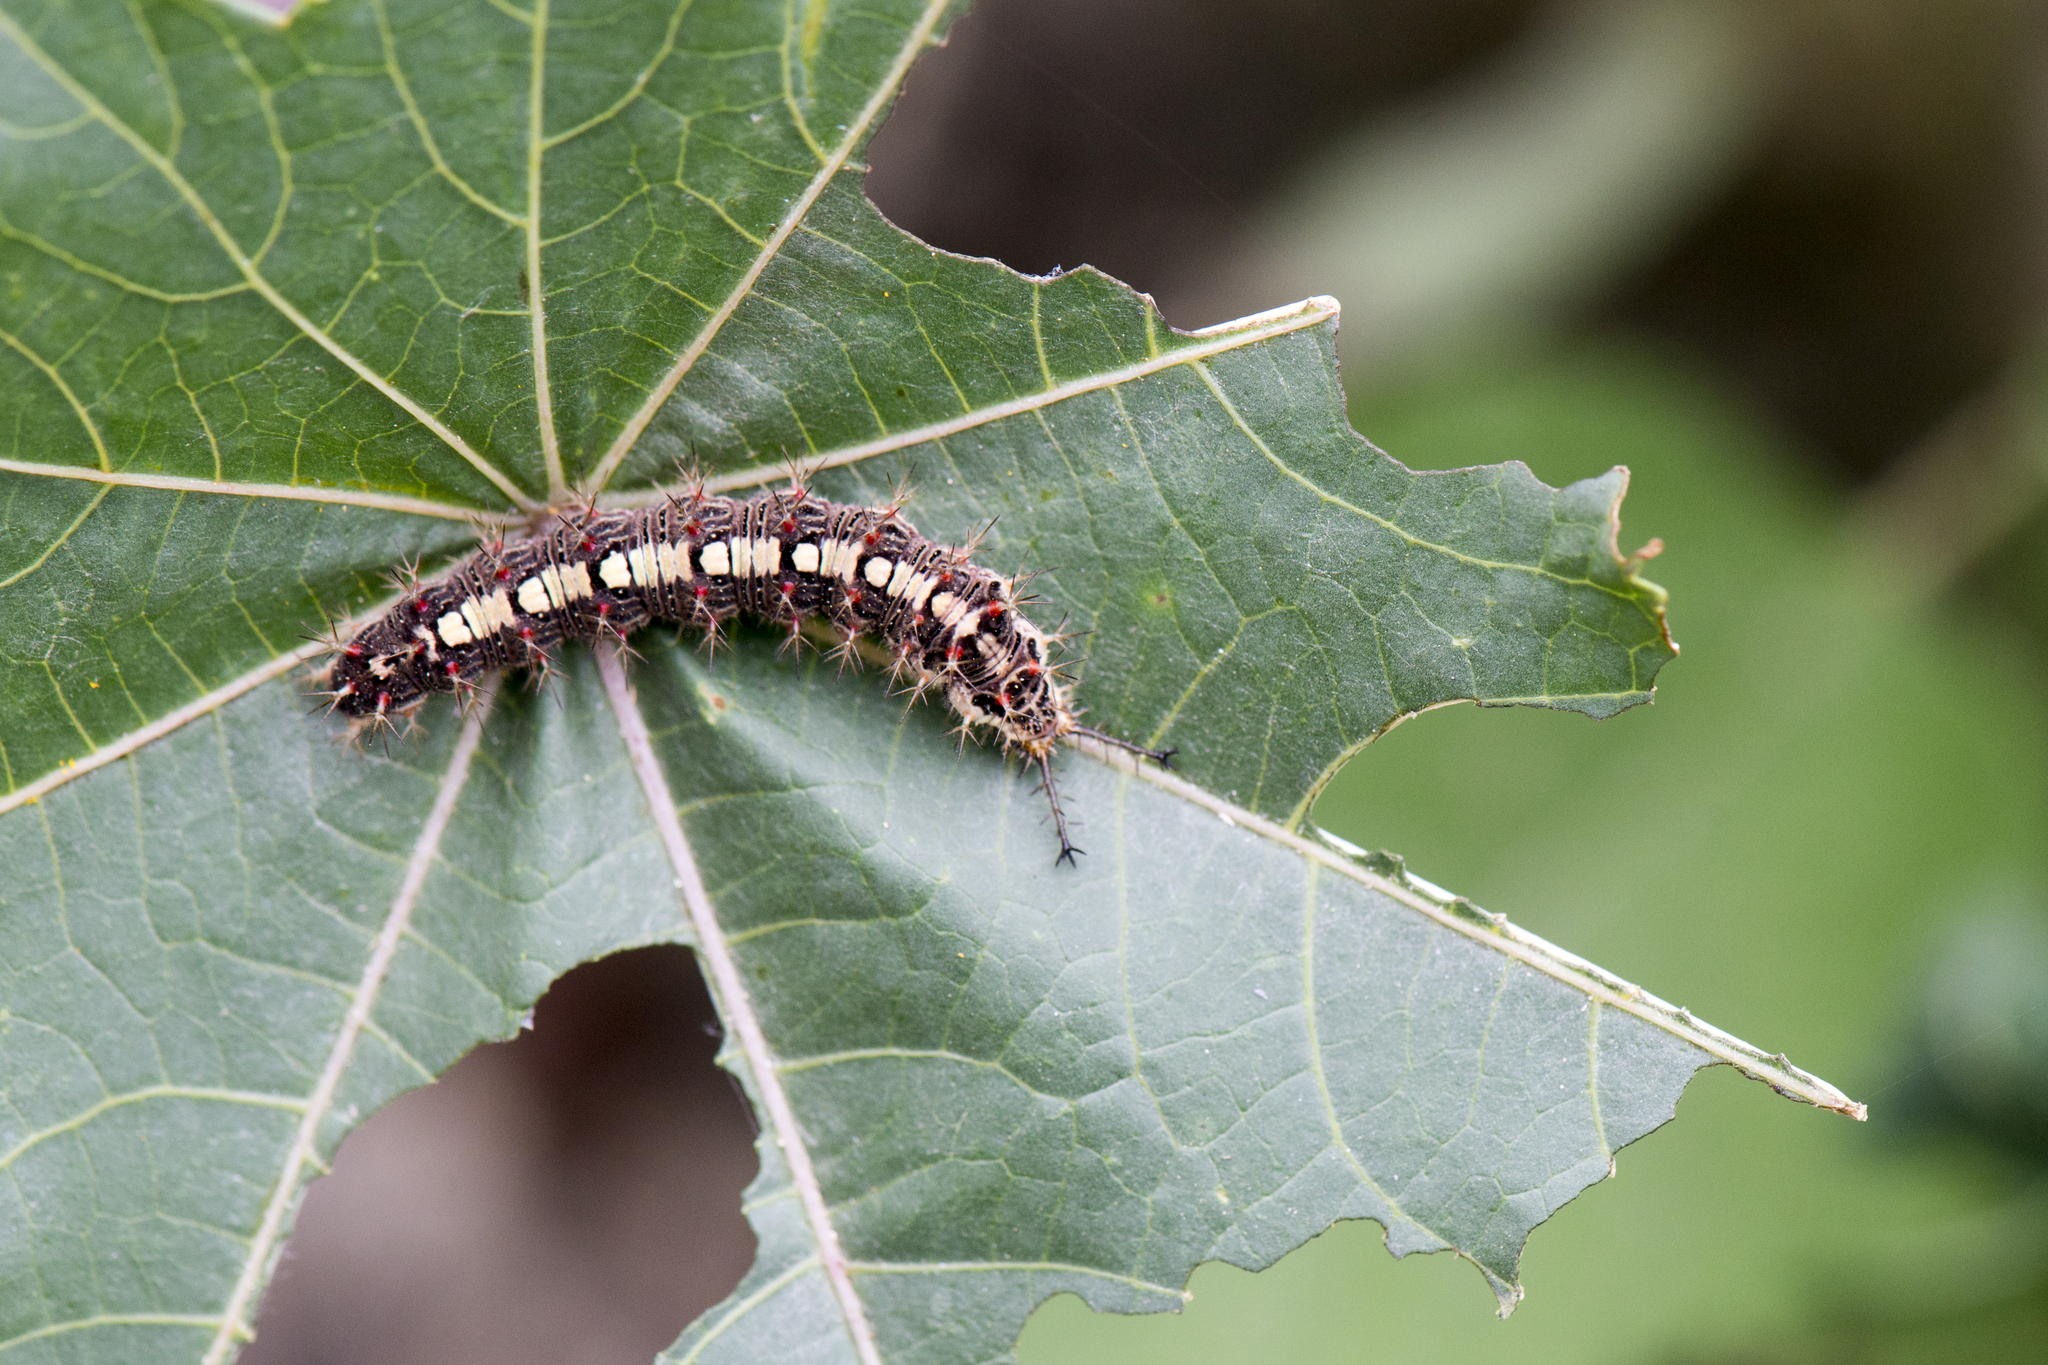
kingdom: Animalia
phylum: Arthropoda
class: Insecta
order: Lepidoptera
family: Nymphalidae
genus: Ariadne
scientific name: Ariadne ariadne
